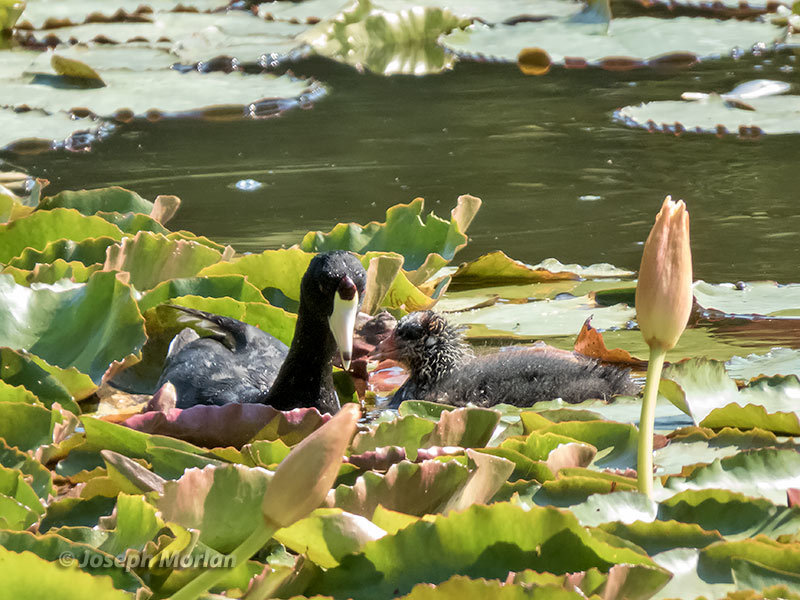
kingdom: Animalia
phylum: Chordata
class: Aves
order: Gruiformes
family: Rallidae
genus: Fulica
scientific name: Fulica americana
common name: American coot
